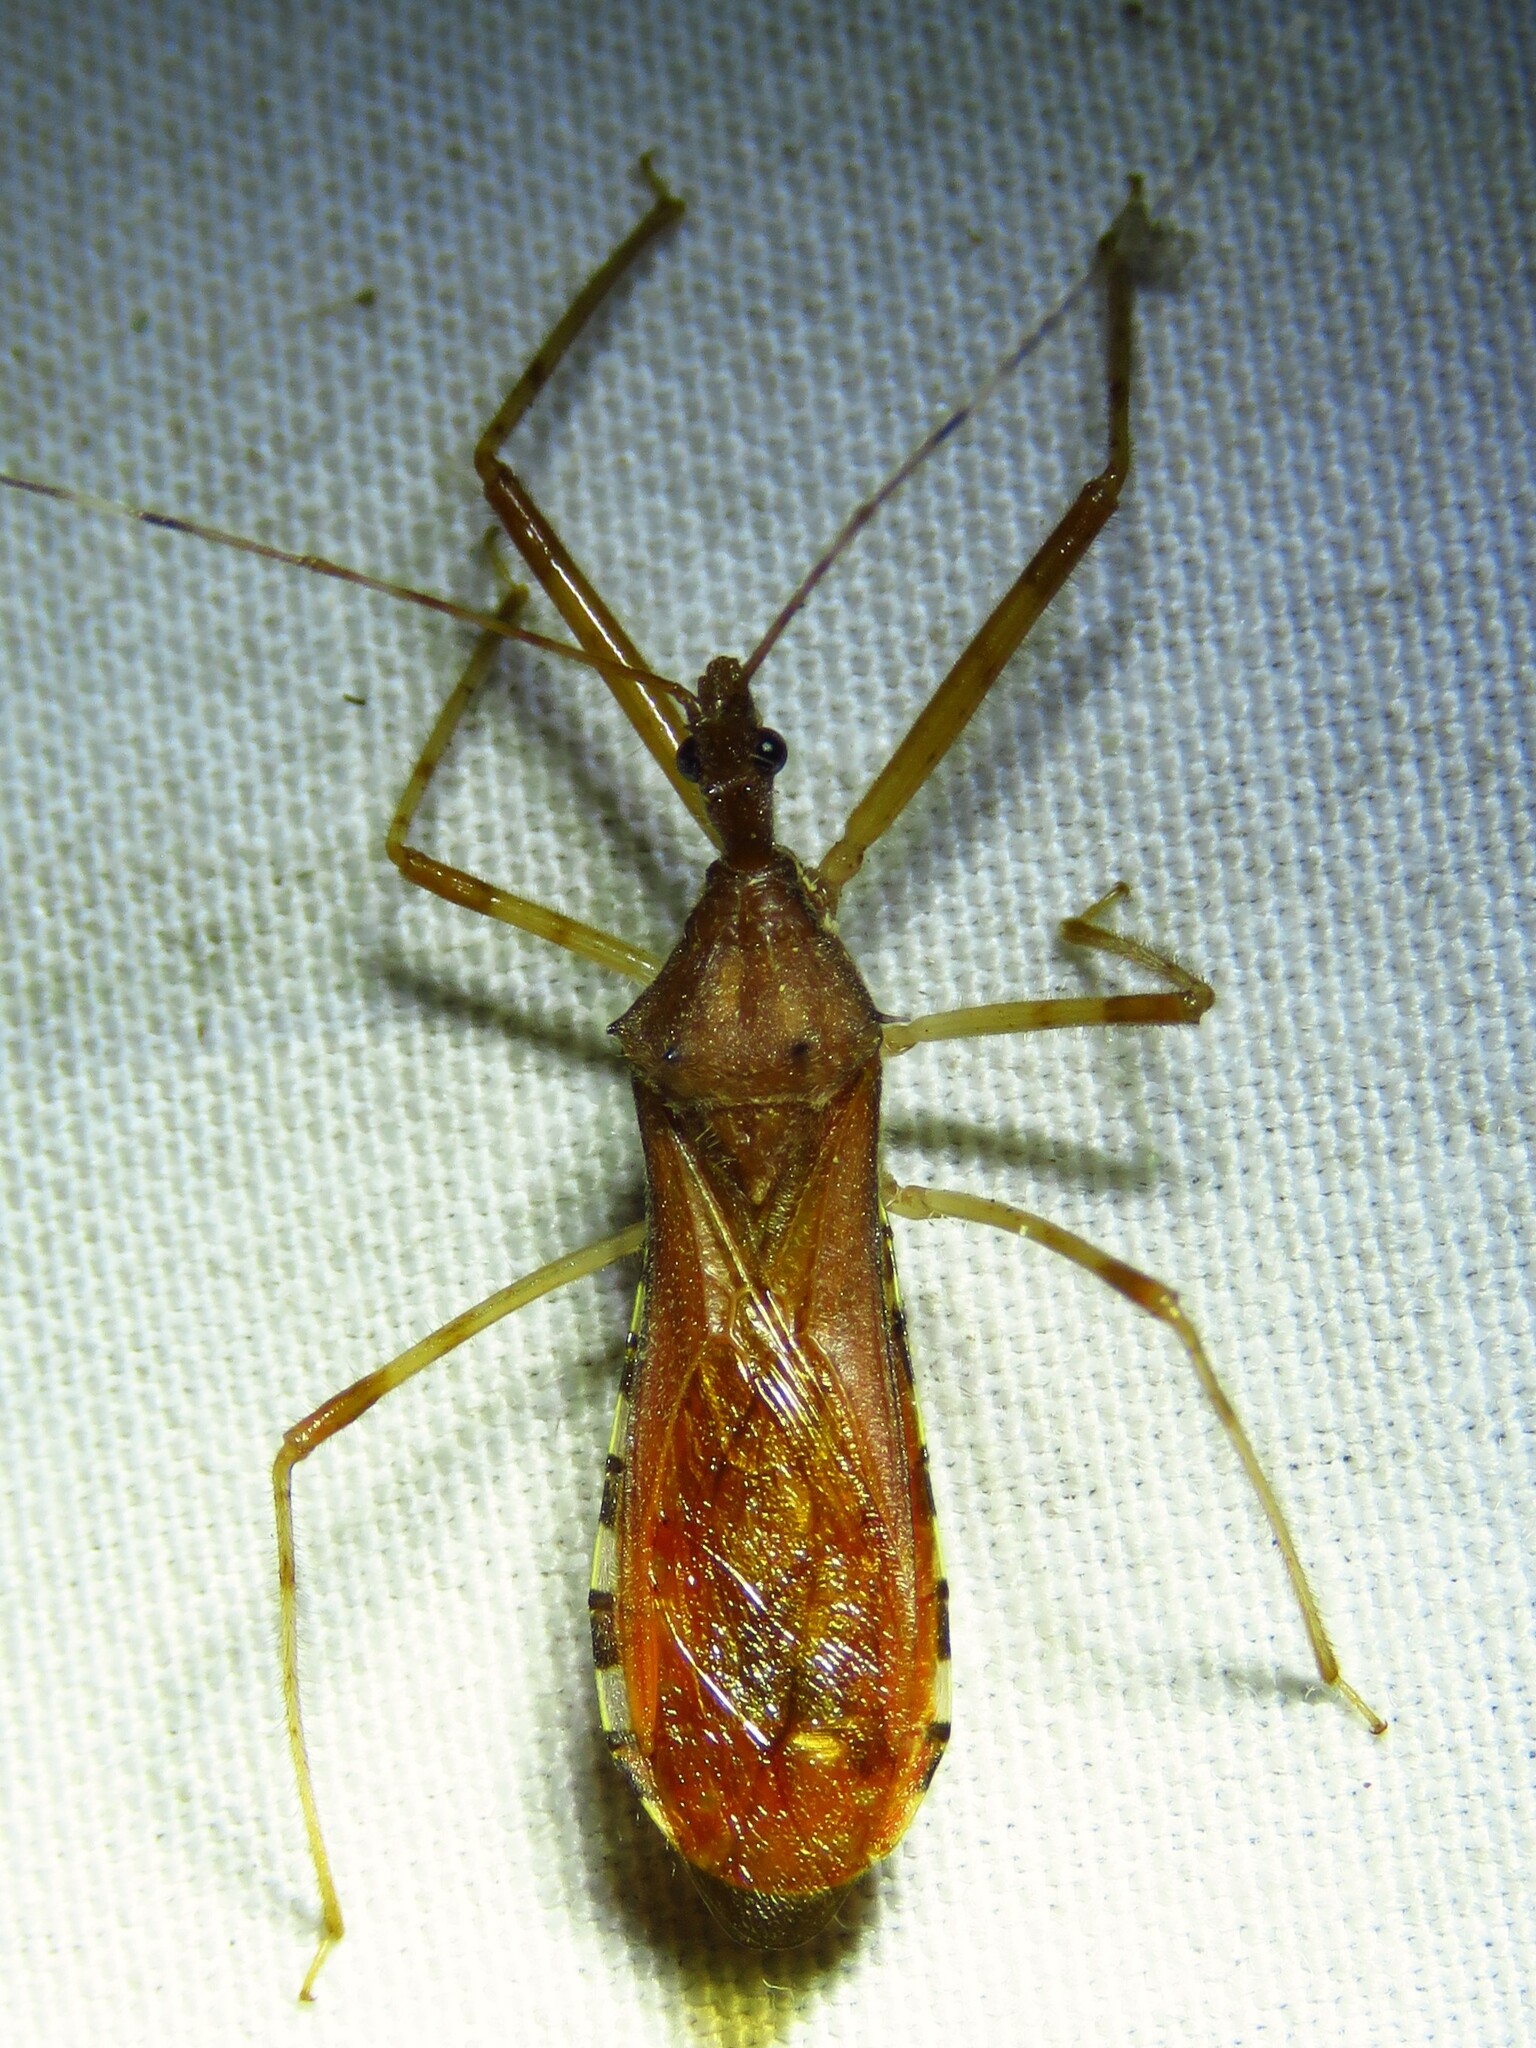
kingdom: Animalia
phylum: Arthropoda
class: Insecta
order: Hemiptera
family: Reduviidae
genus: Rocconota
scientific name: Rocconota annulicornis
